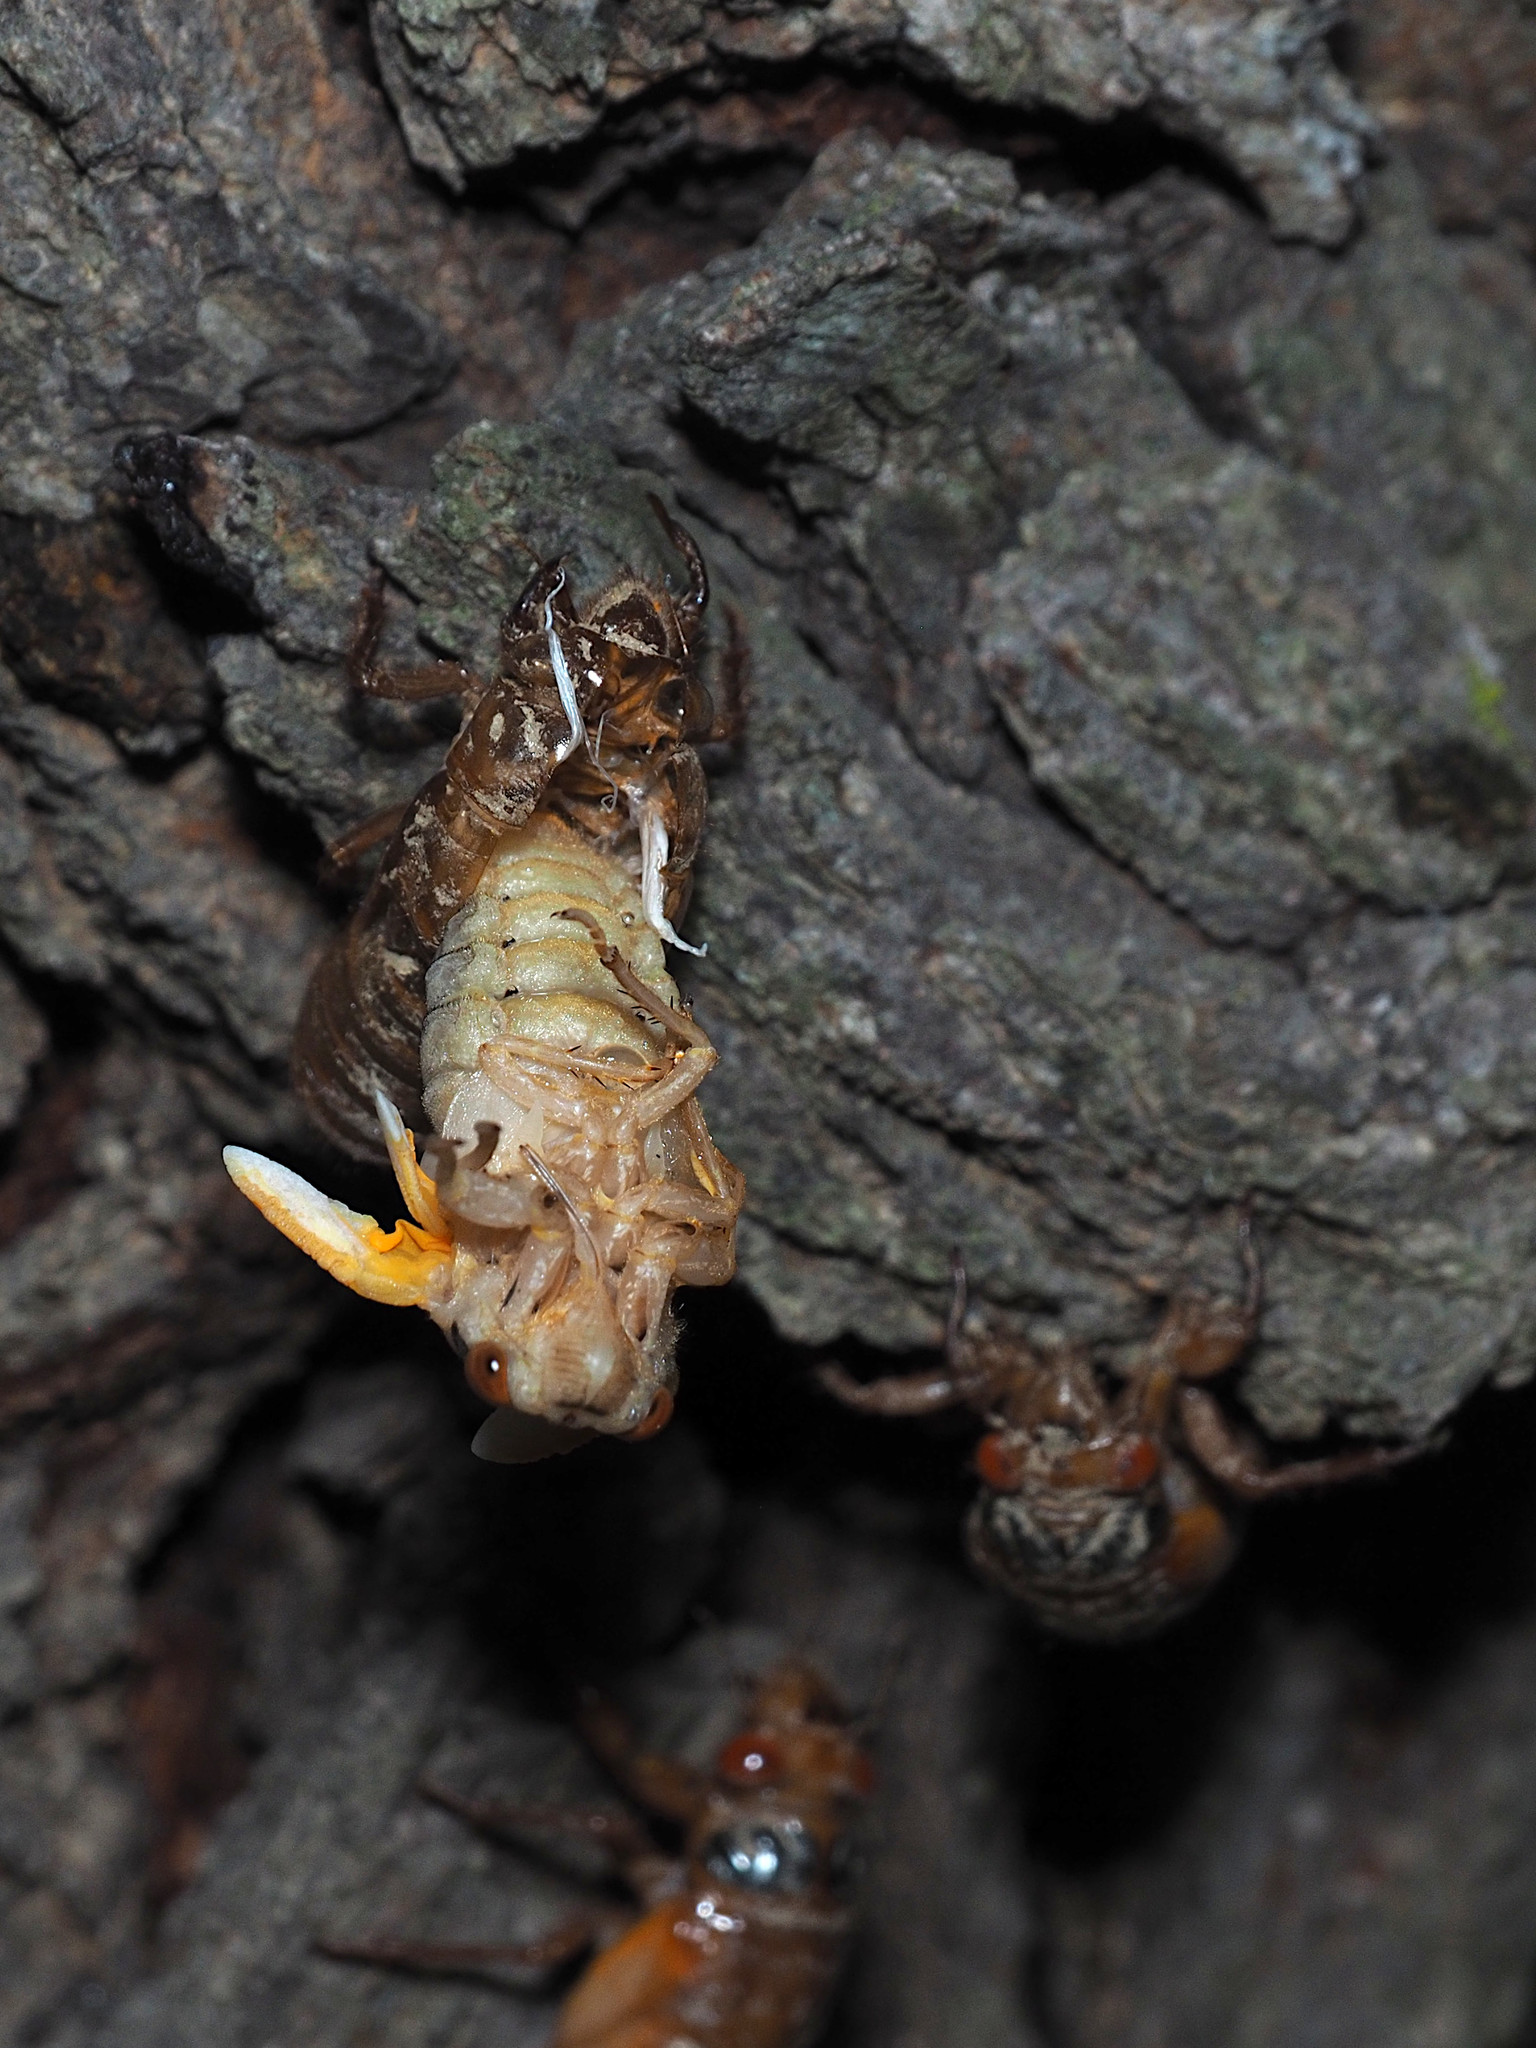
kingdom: Animalia
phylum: Arthropoda
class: Insecta
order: Hemiptera
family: Cicadidae
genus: Magicicada
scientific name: Magicicada
